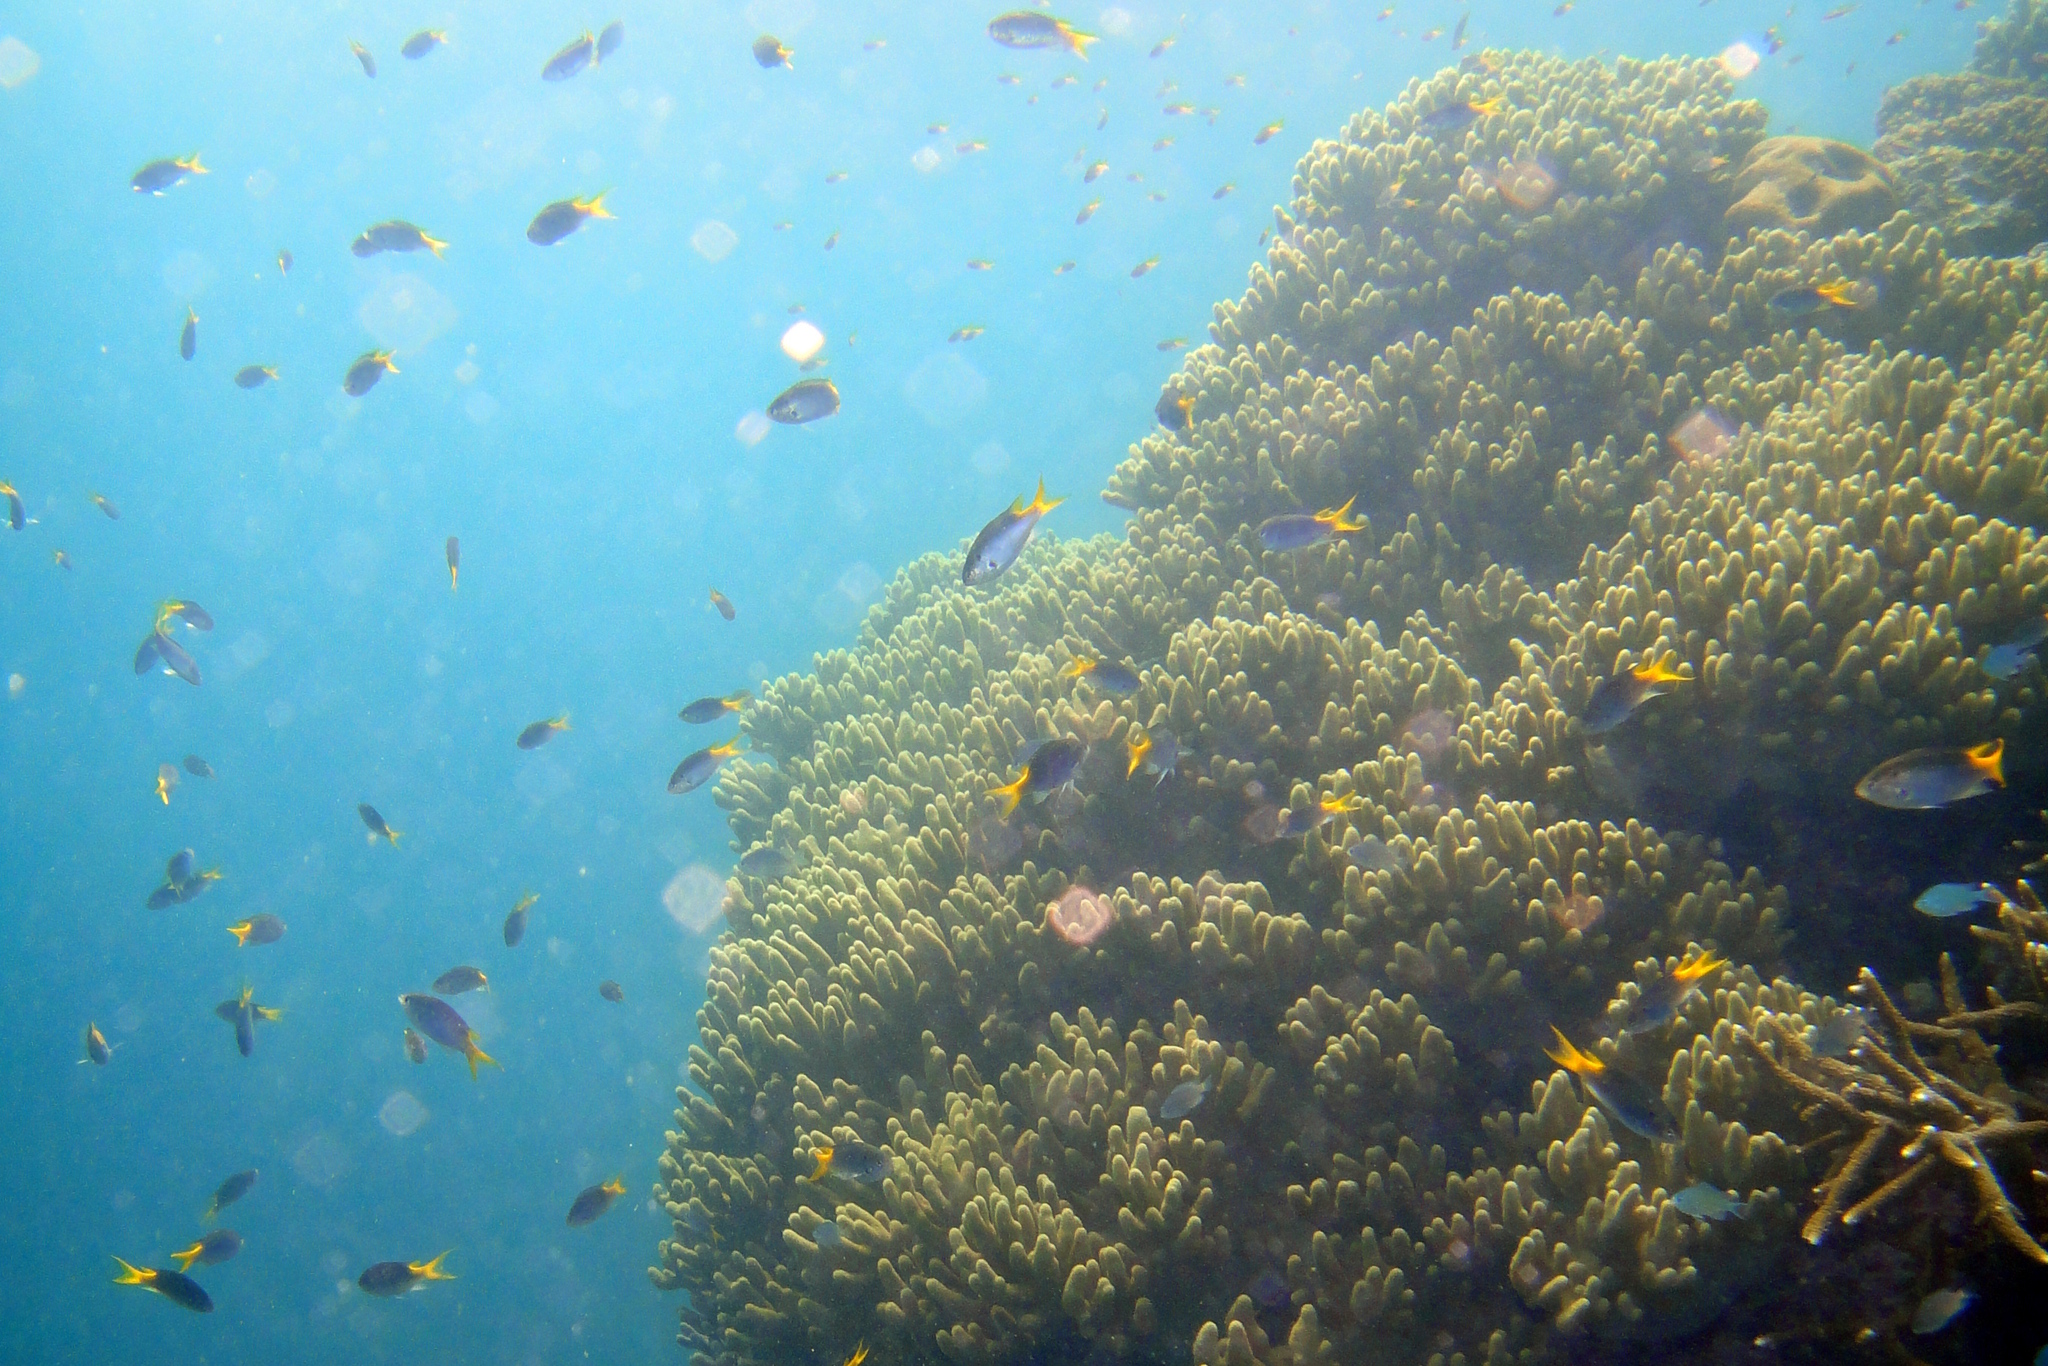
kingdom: Animalia
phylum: Chordata
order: Perciformes
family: Pomacentridae
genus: Neopomacentrus
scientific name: Neopomacentrus bankieri
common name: Chinese damsel
